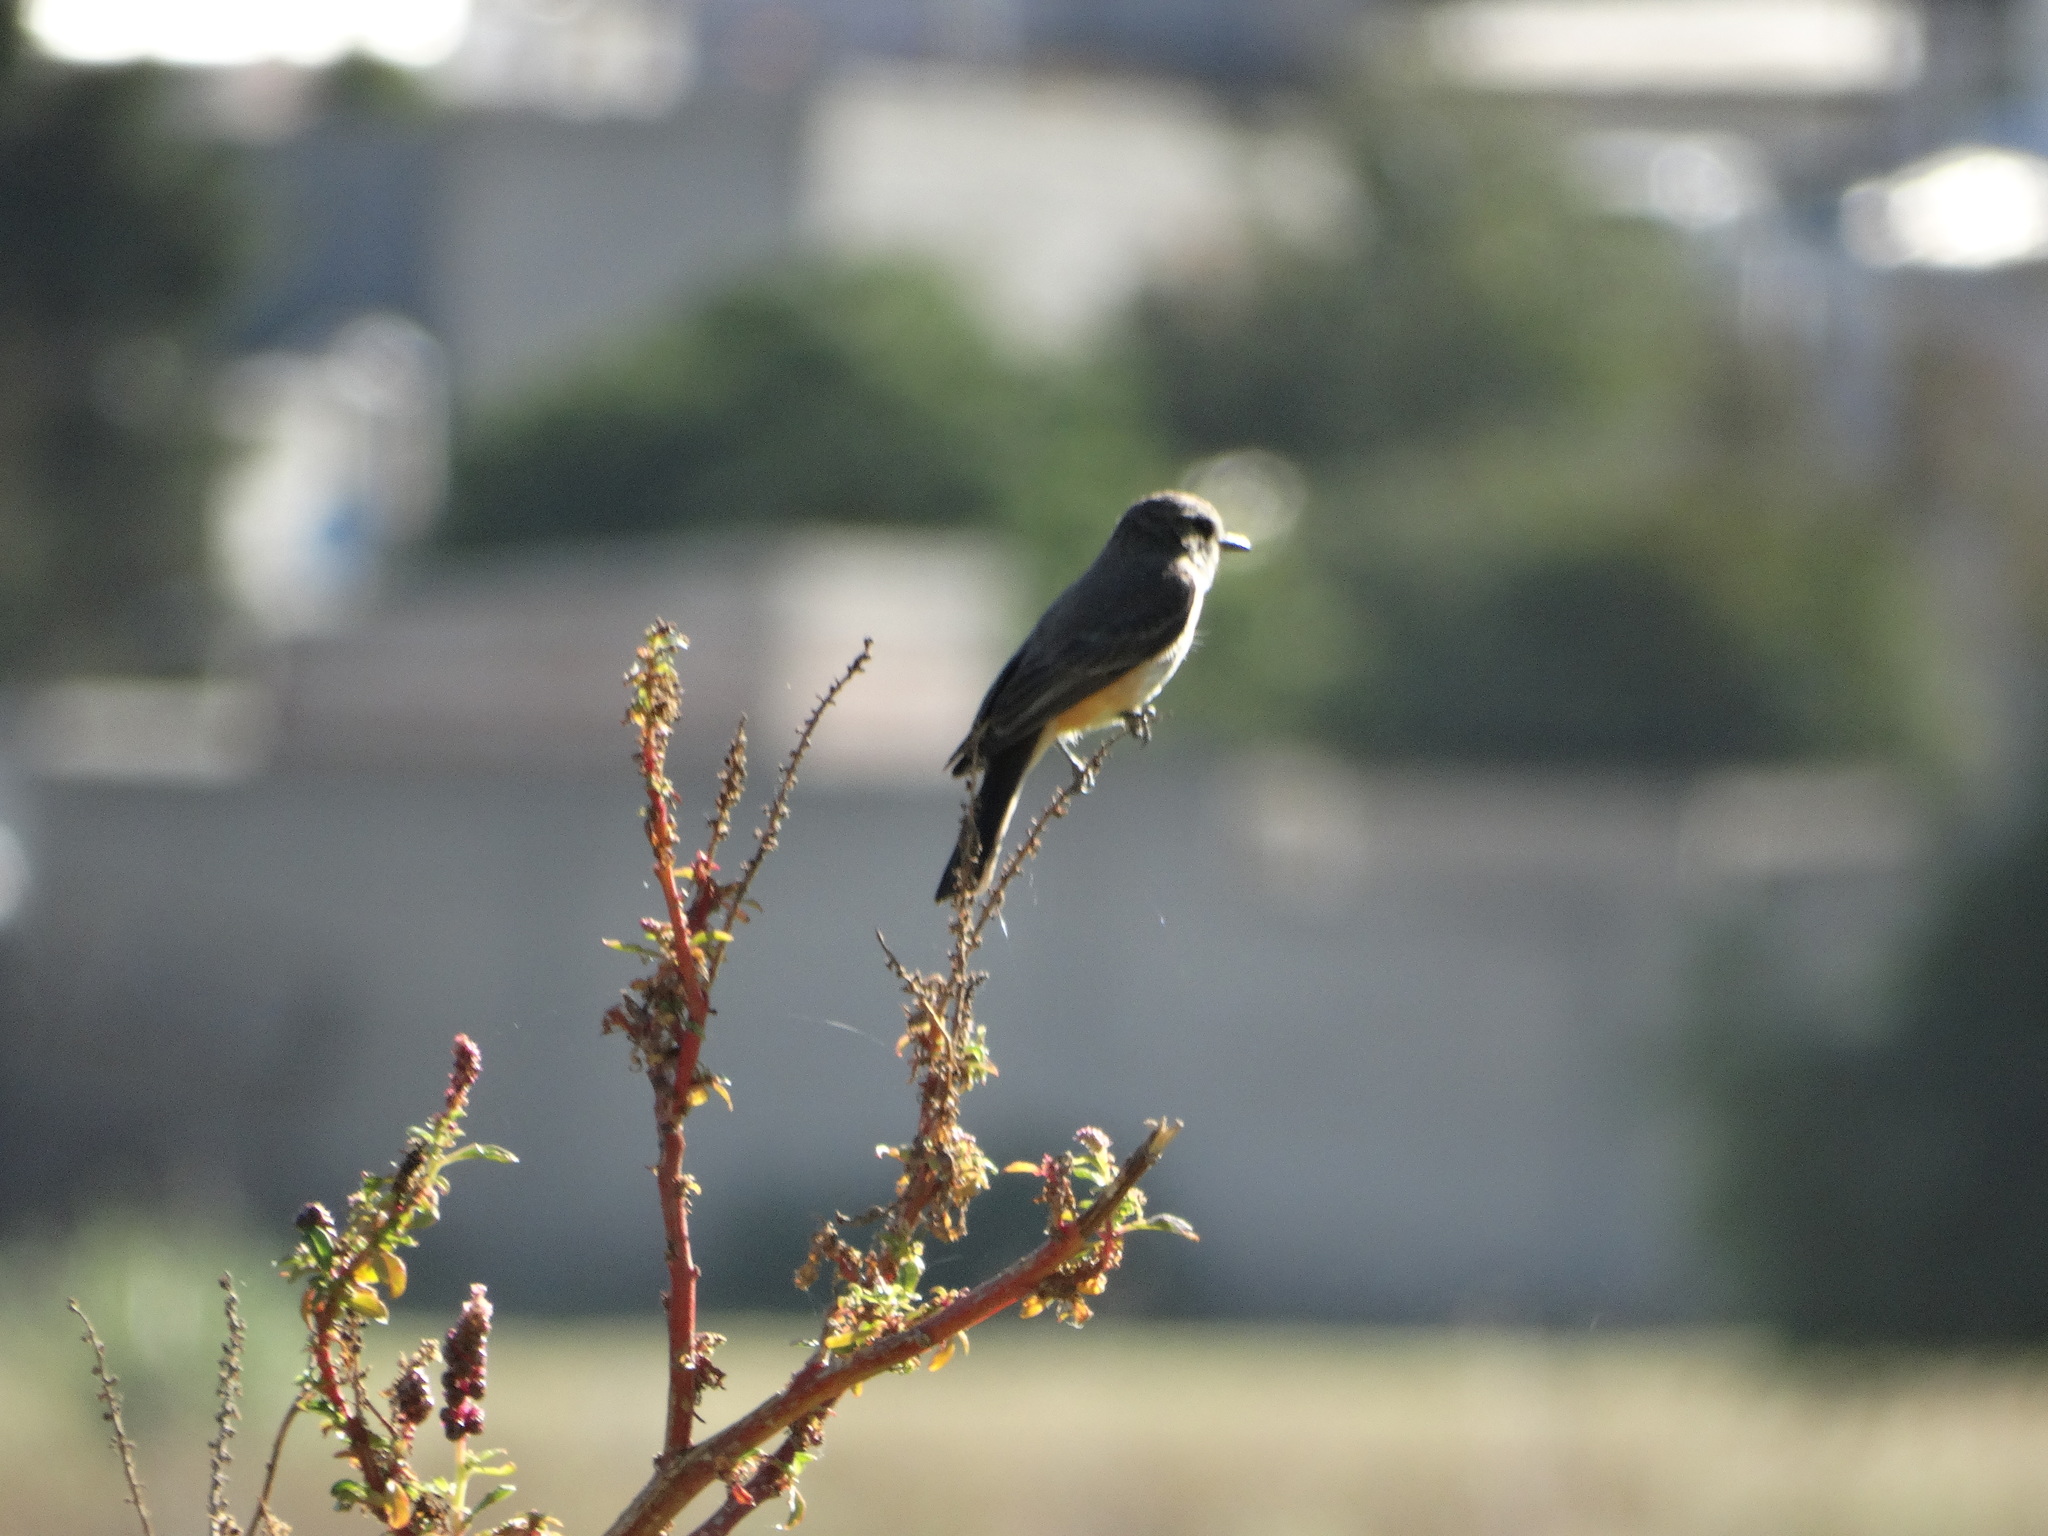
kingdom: Animalia
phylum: Chordata
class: Aves
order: Passeriformes
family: Tyrannidae
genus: Pyrocephalus
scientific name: Pyrocephalus rubinus
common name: Vermilion flycatcher
